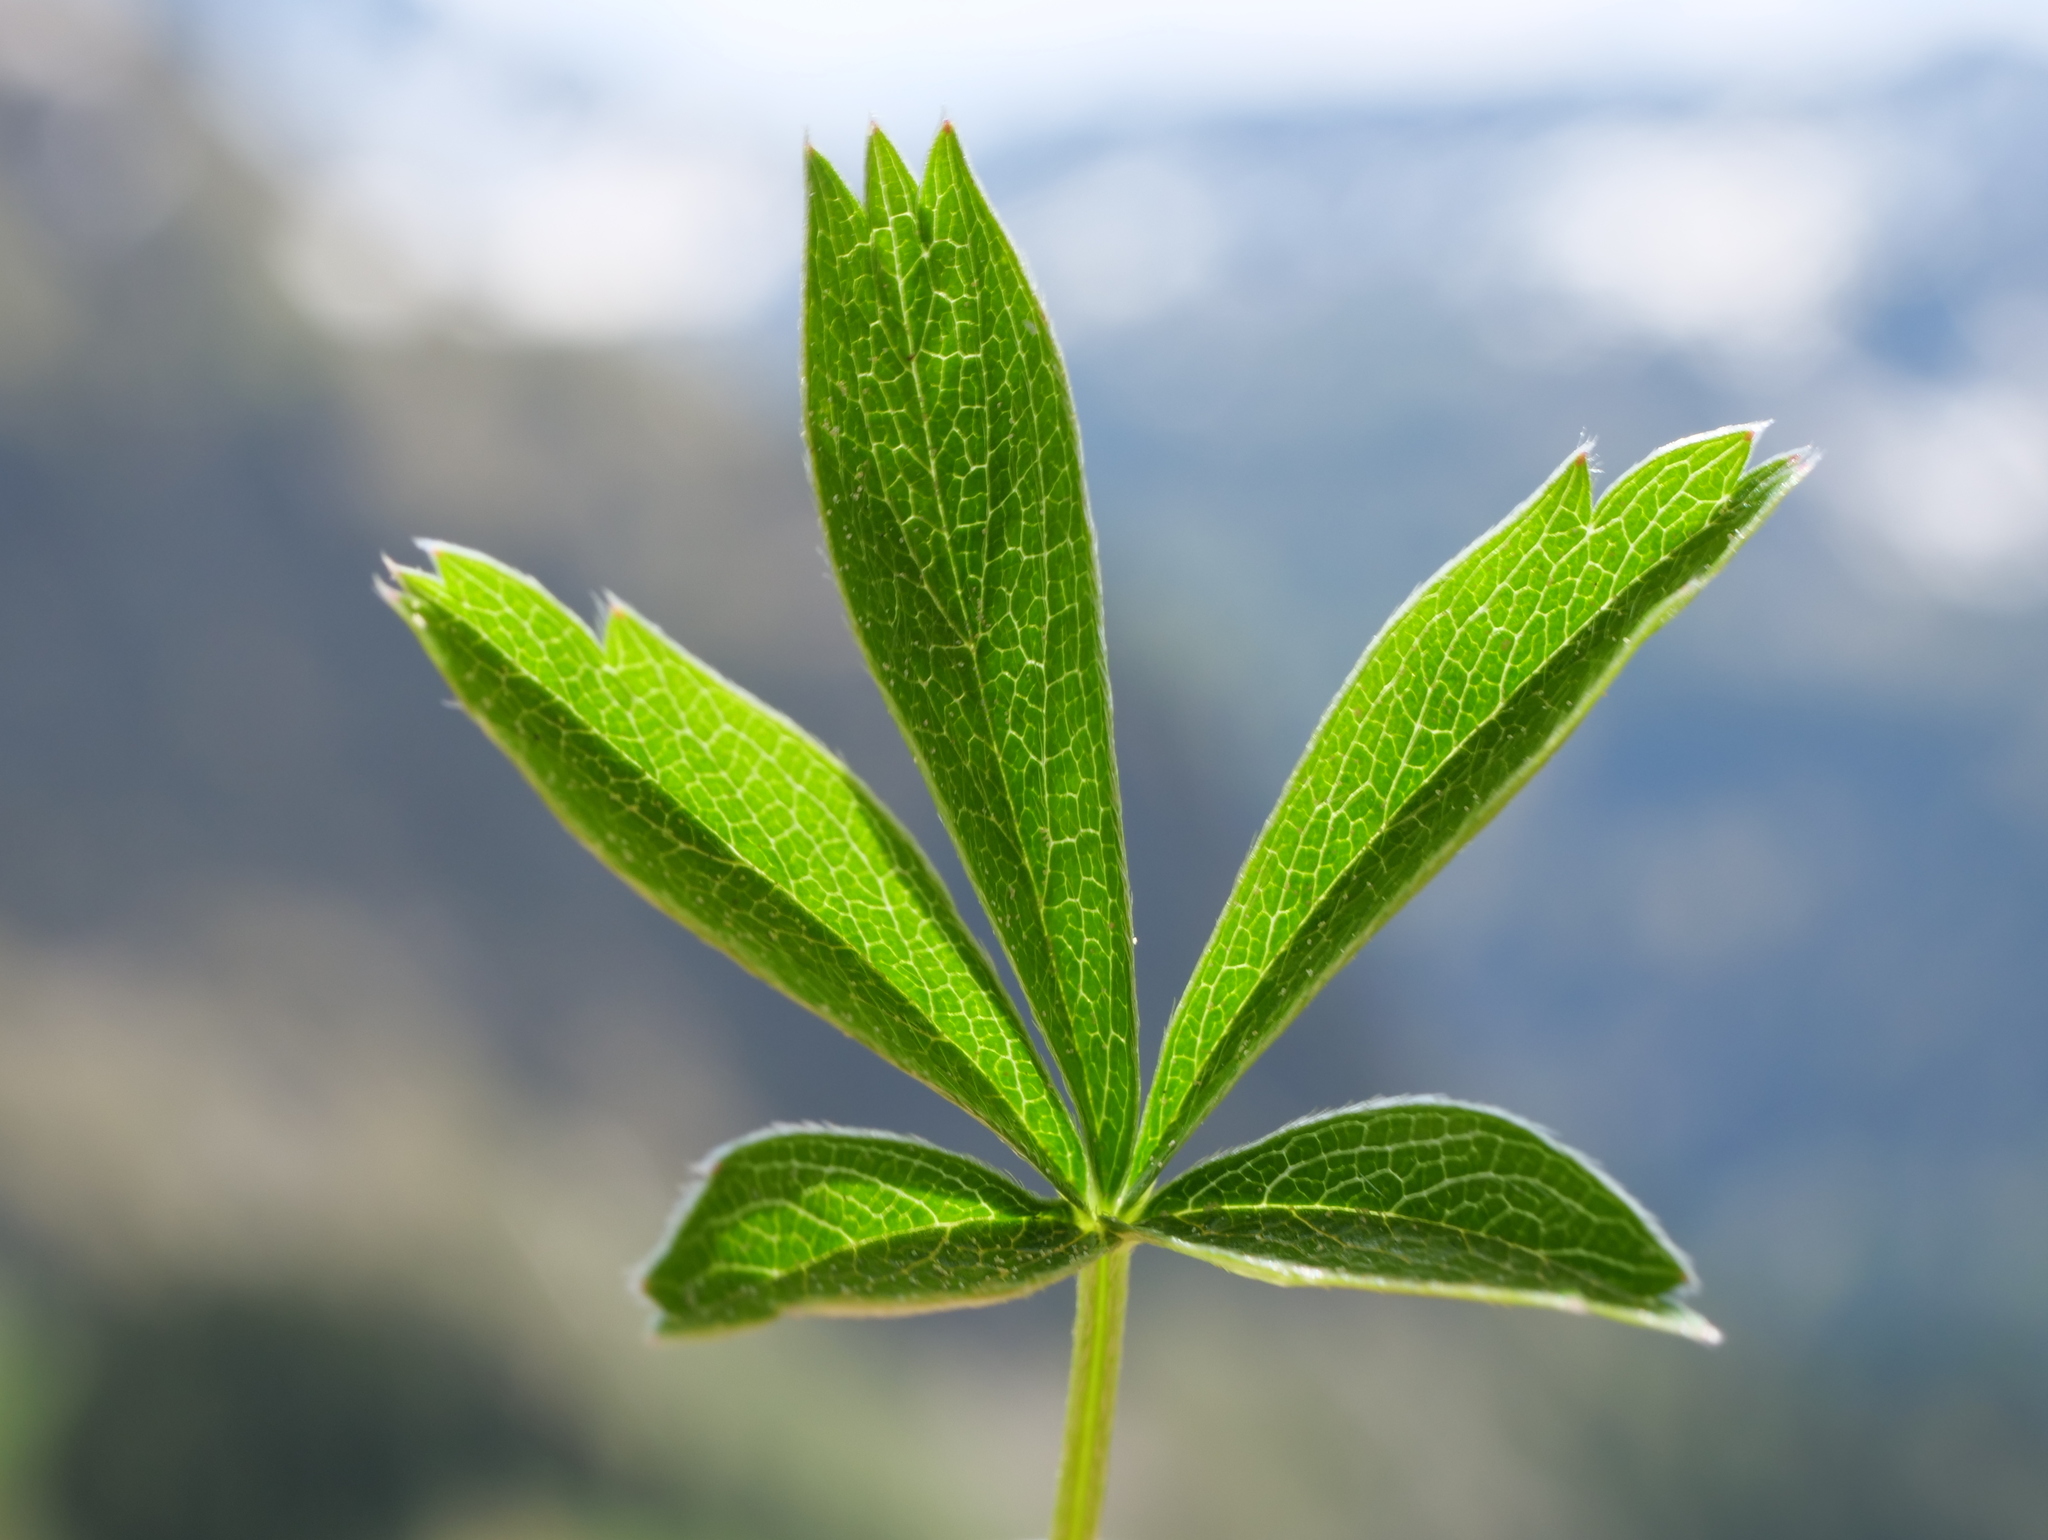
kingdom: Plantae
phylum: Tracheophyta
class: Magnoliopsida
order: Rosales
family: Rosaceae
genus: Potentilla
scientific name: Potentilla aurea
